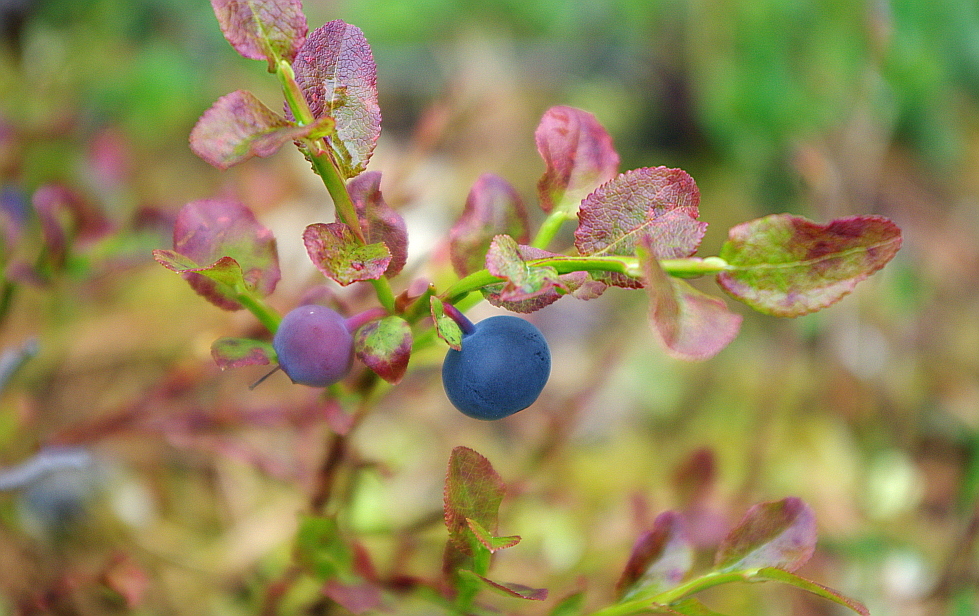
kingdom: Plantae
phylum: Tracheophyta
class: Magnoliopsida
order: Ericales
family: Ericaceae
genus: Vaccinium
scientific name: Vaccinium myrtillus
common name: Bilberry
